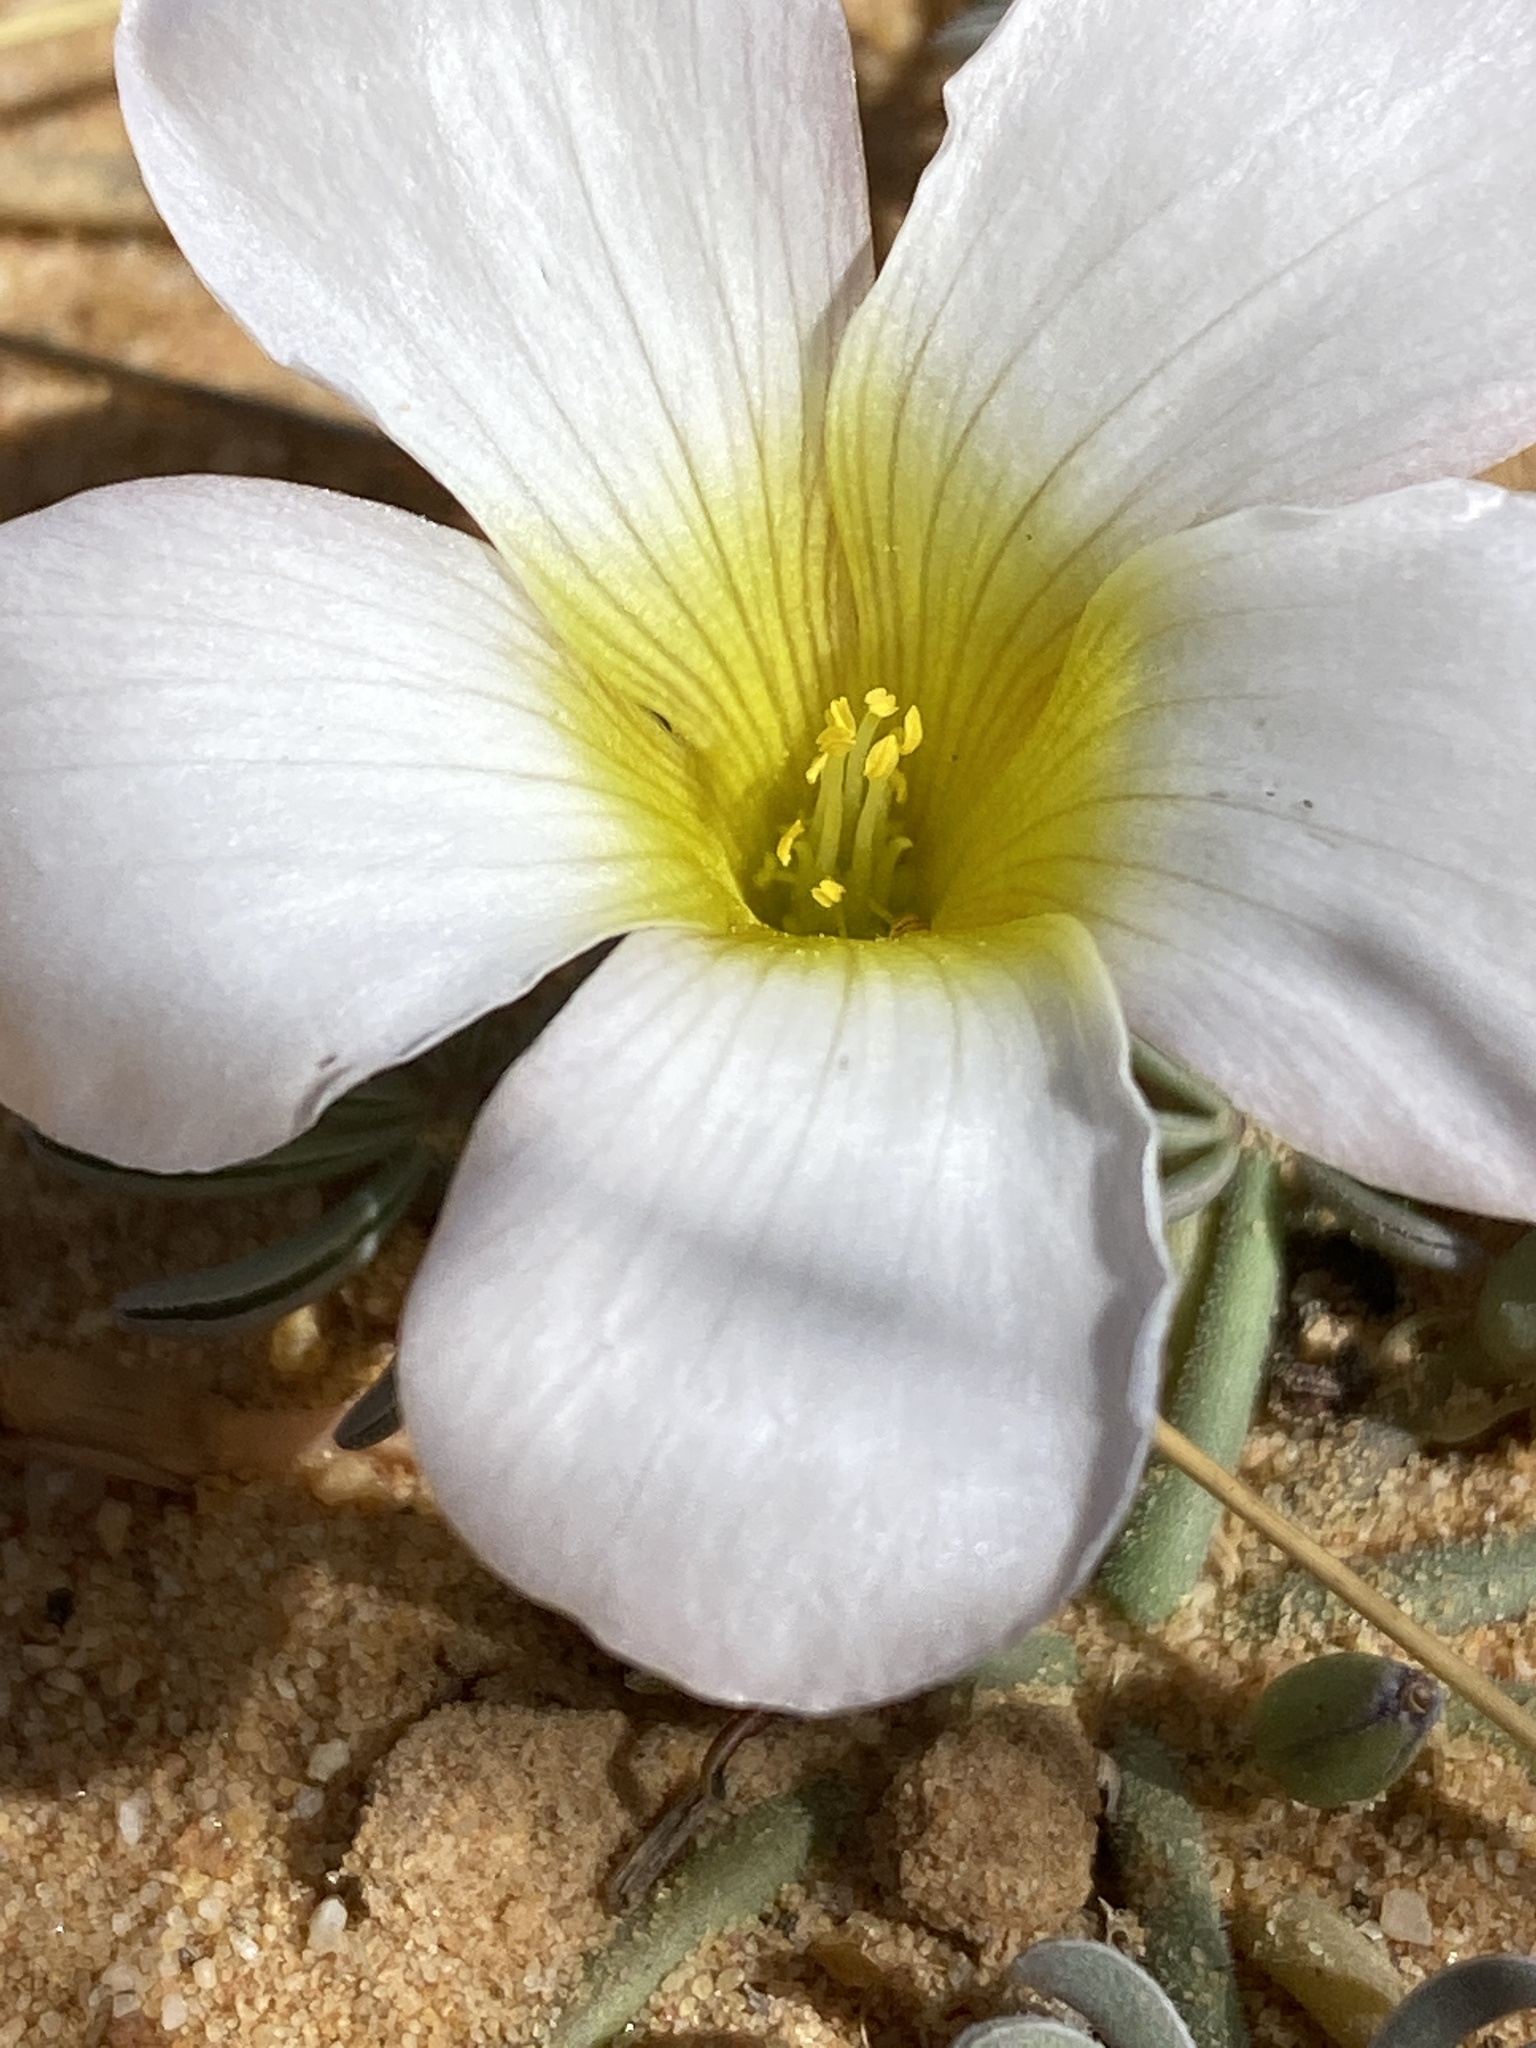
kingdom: Plantae
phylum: Tracheophyta
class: Magnoliopsida
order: Oxalidales
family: Oxalidaceae
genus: Oxalis
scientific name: Oxalis flava
